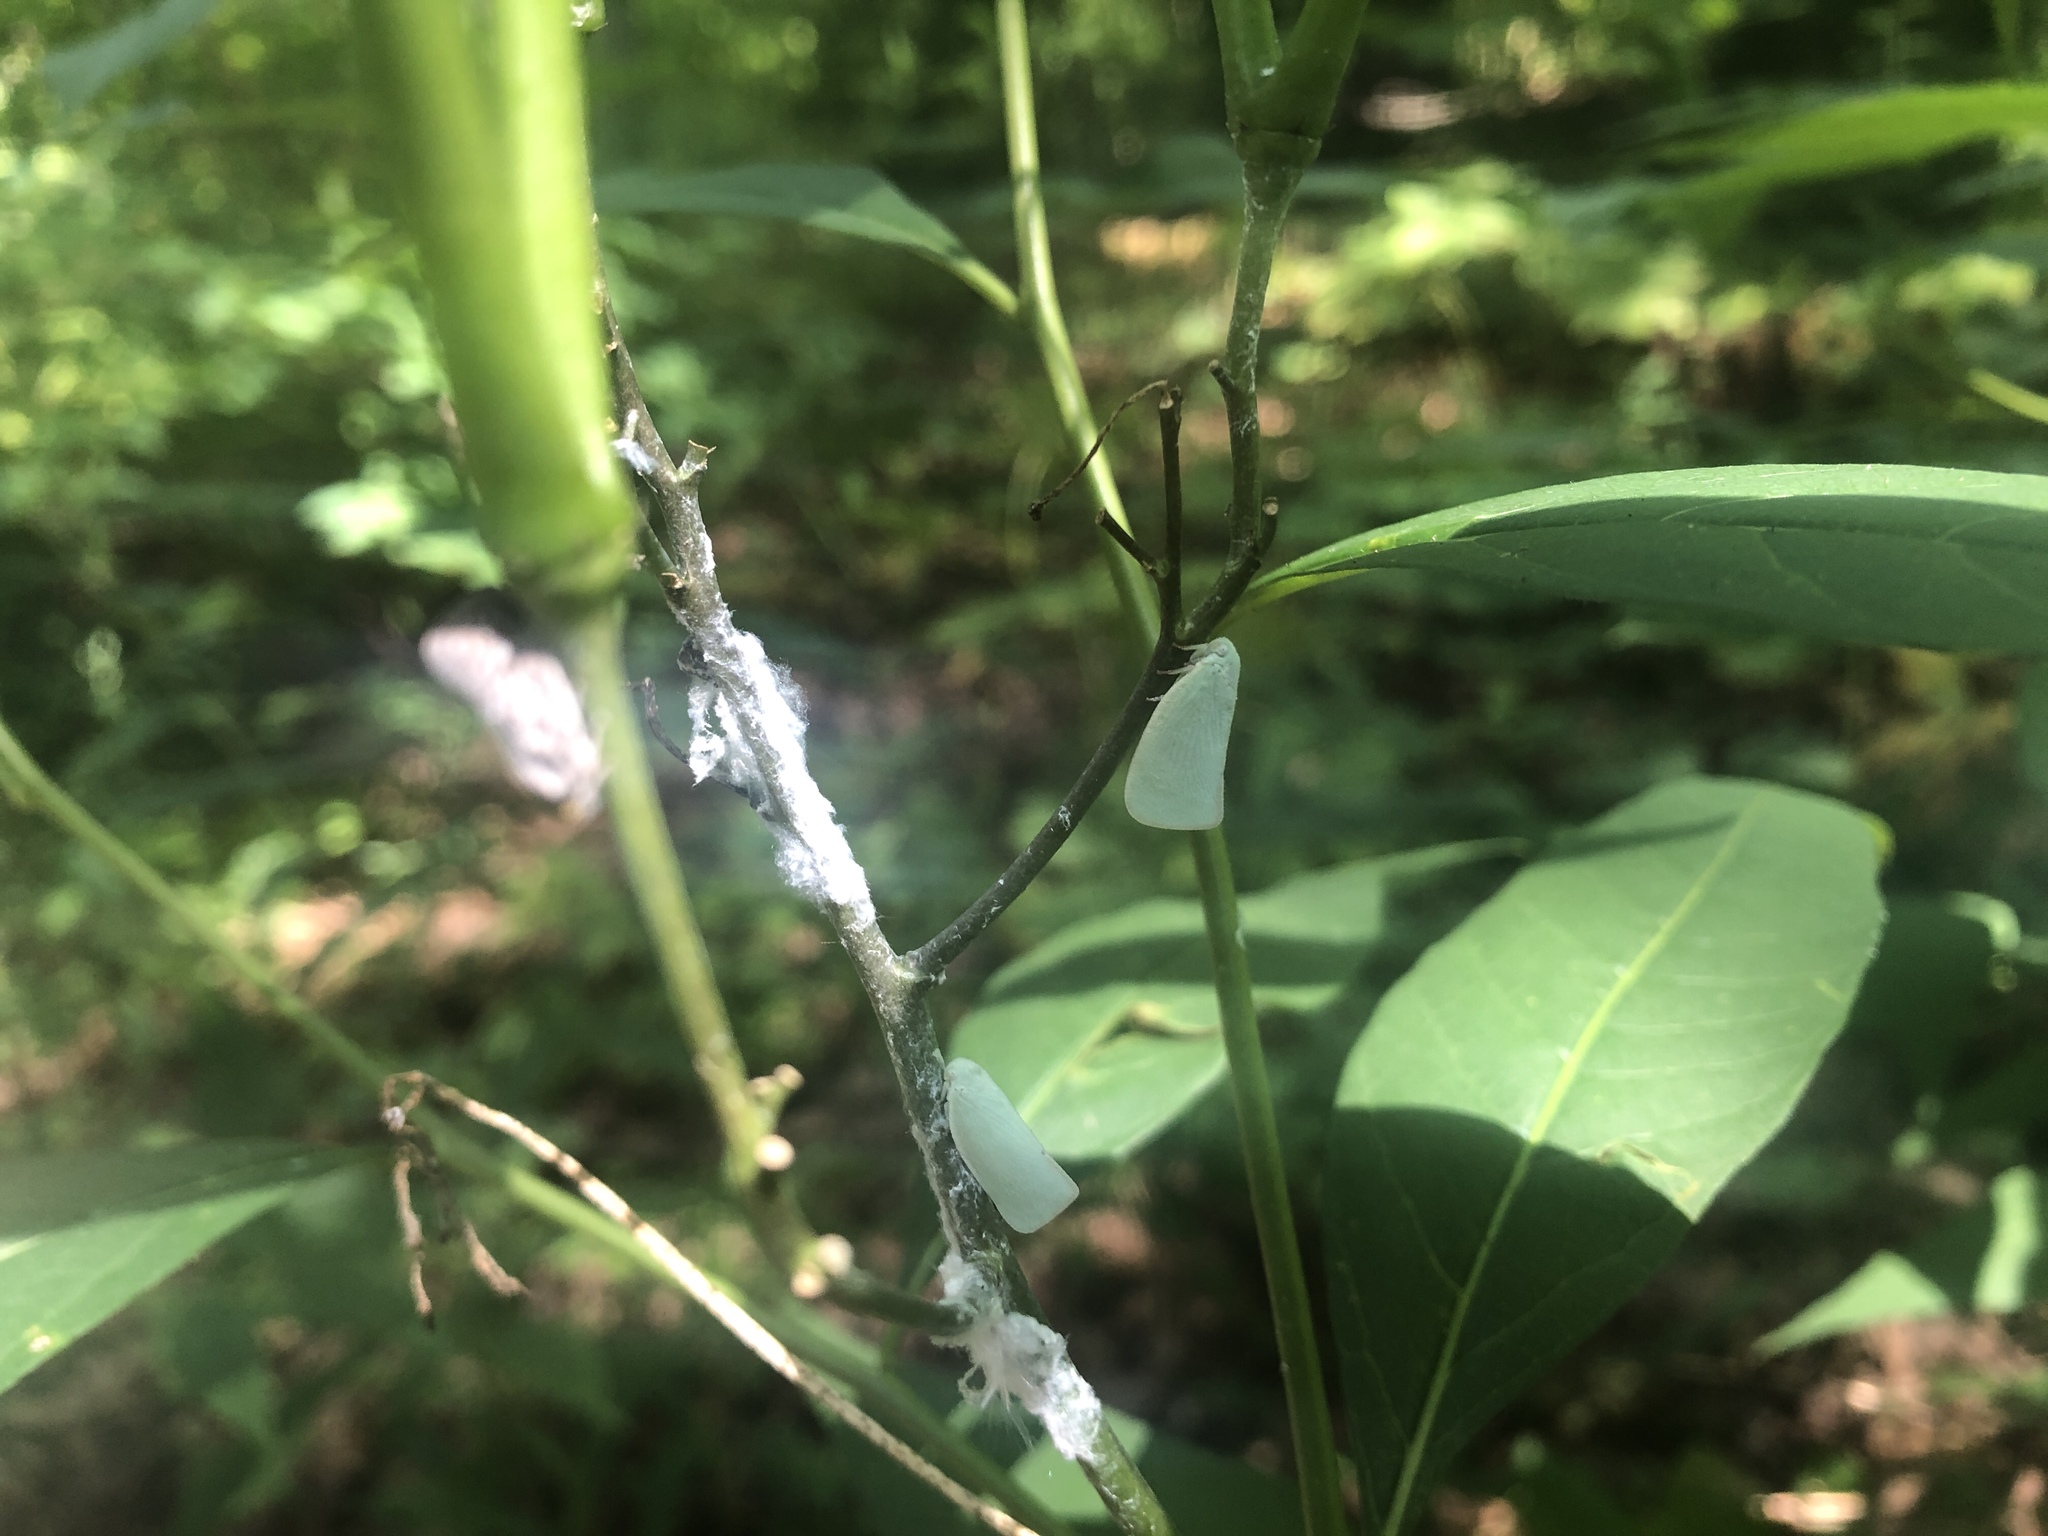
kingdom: Animalia
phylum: Arthropoda
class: Insecta
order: Hemiptera
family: Flatidae
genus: Flatormenis
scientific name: Flatormenis proxima
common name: Northern flatid planthopper
